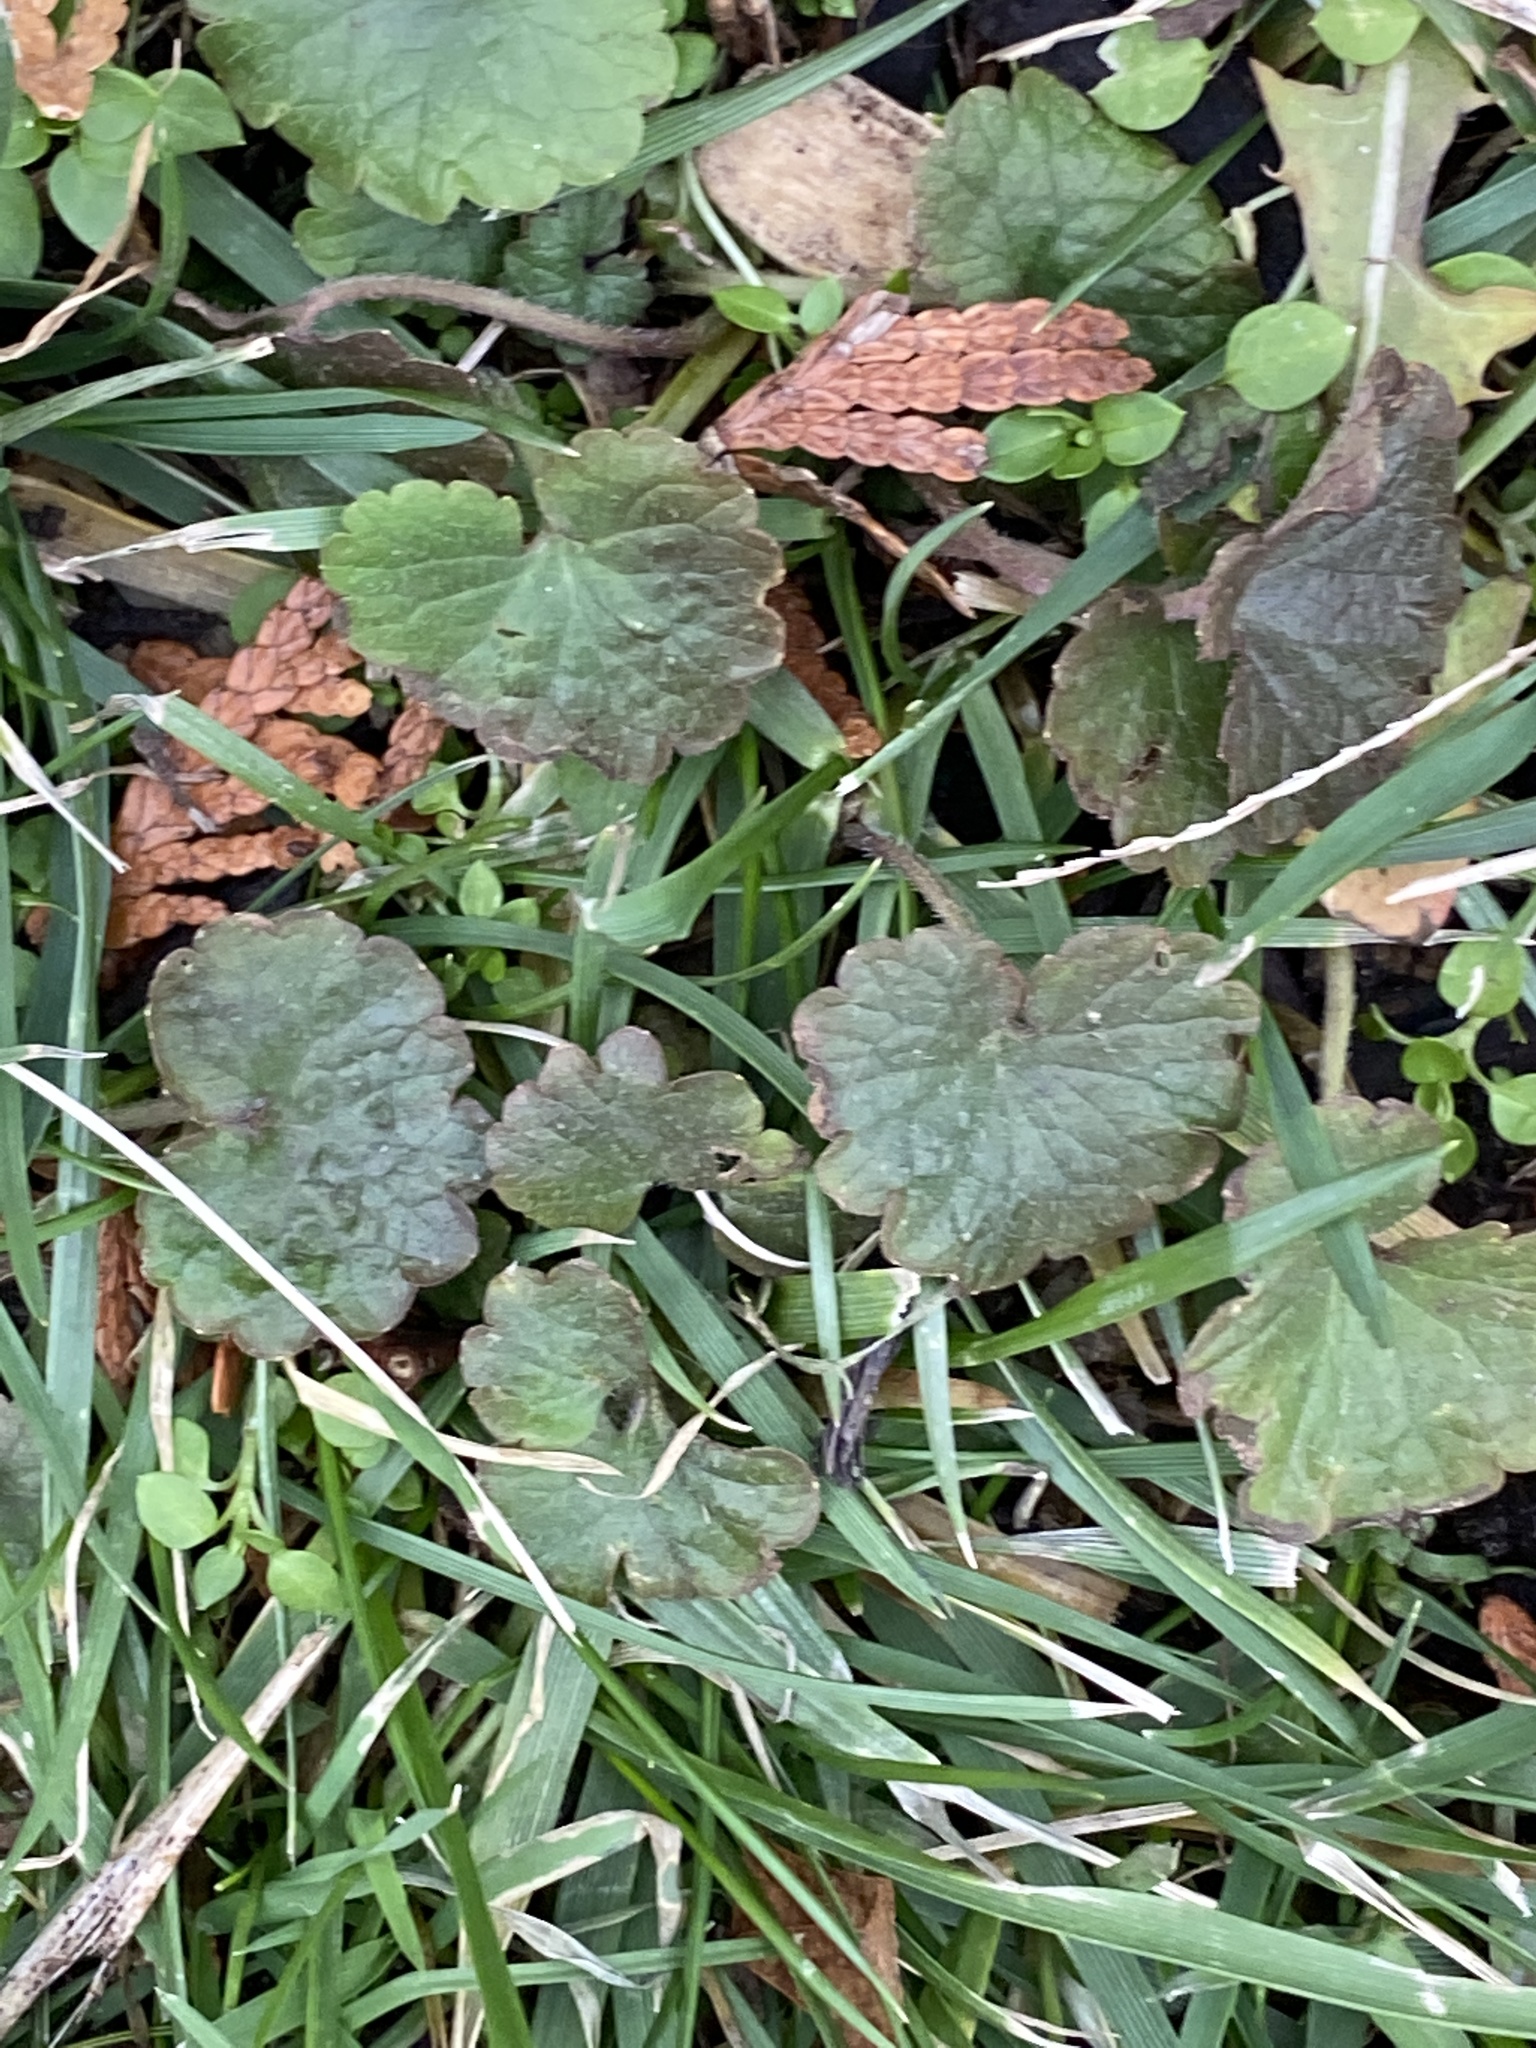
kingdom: Plantae
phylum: Tracheophyta
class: Magnoliopsida
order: Lamiales
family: Lamiaceae
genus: Glechoma
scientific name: Glechoma hederacea
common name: Ground ivy
